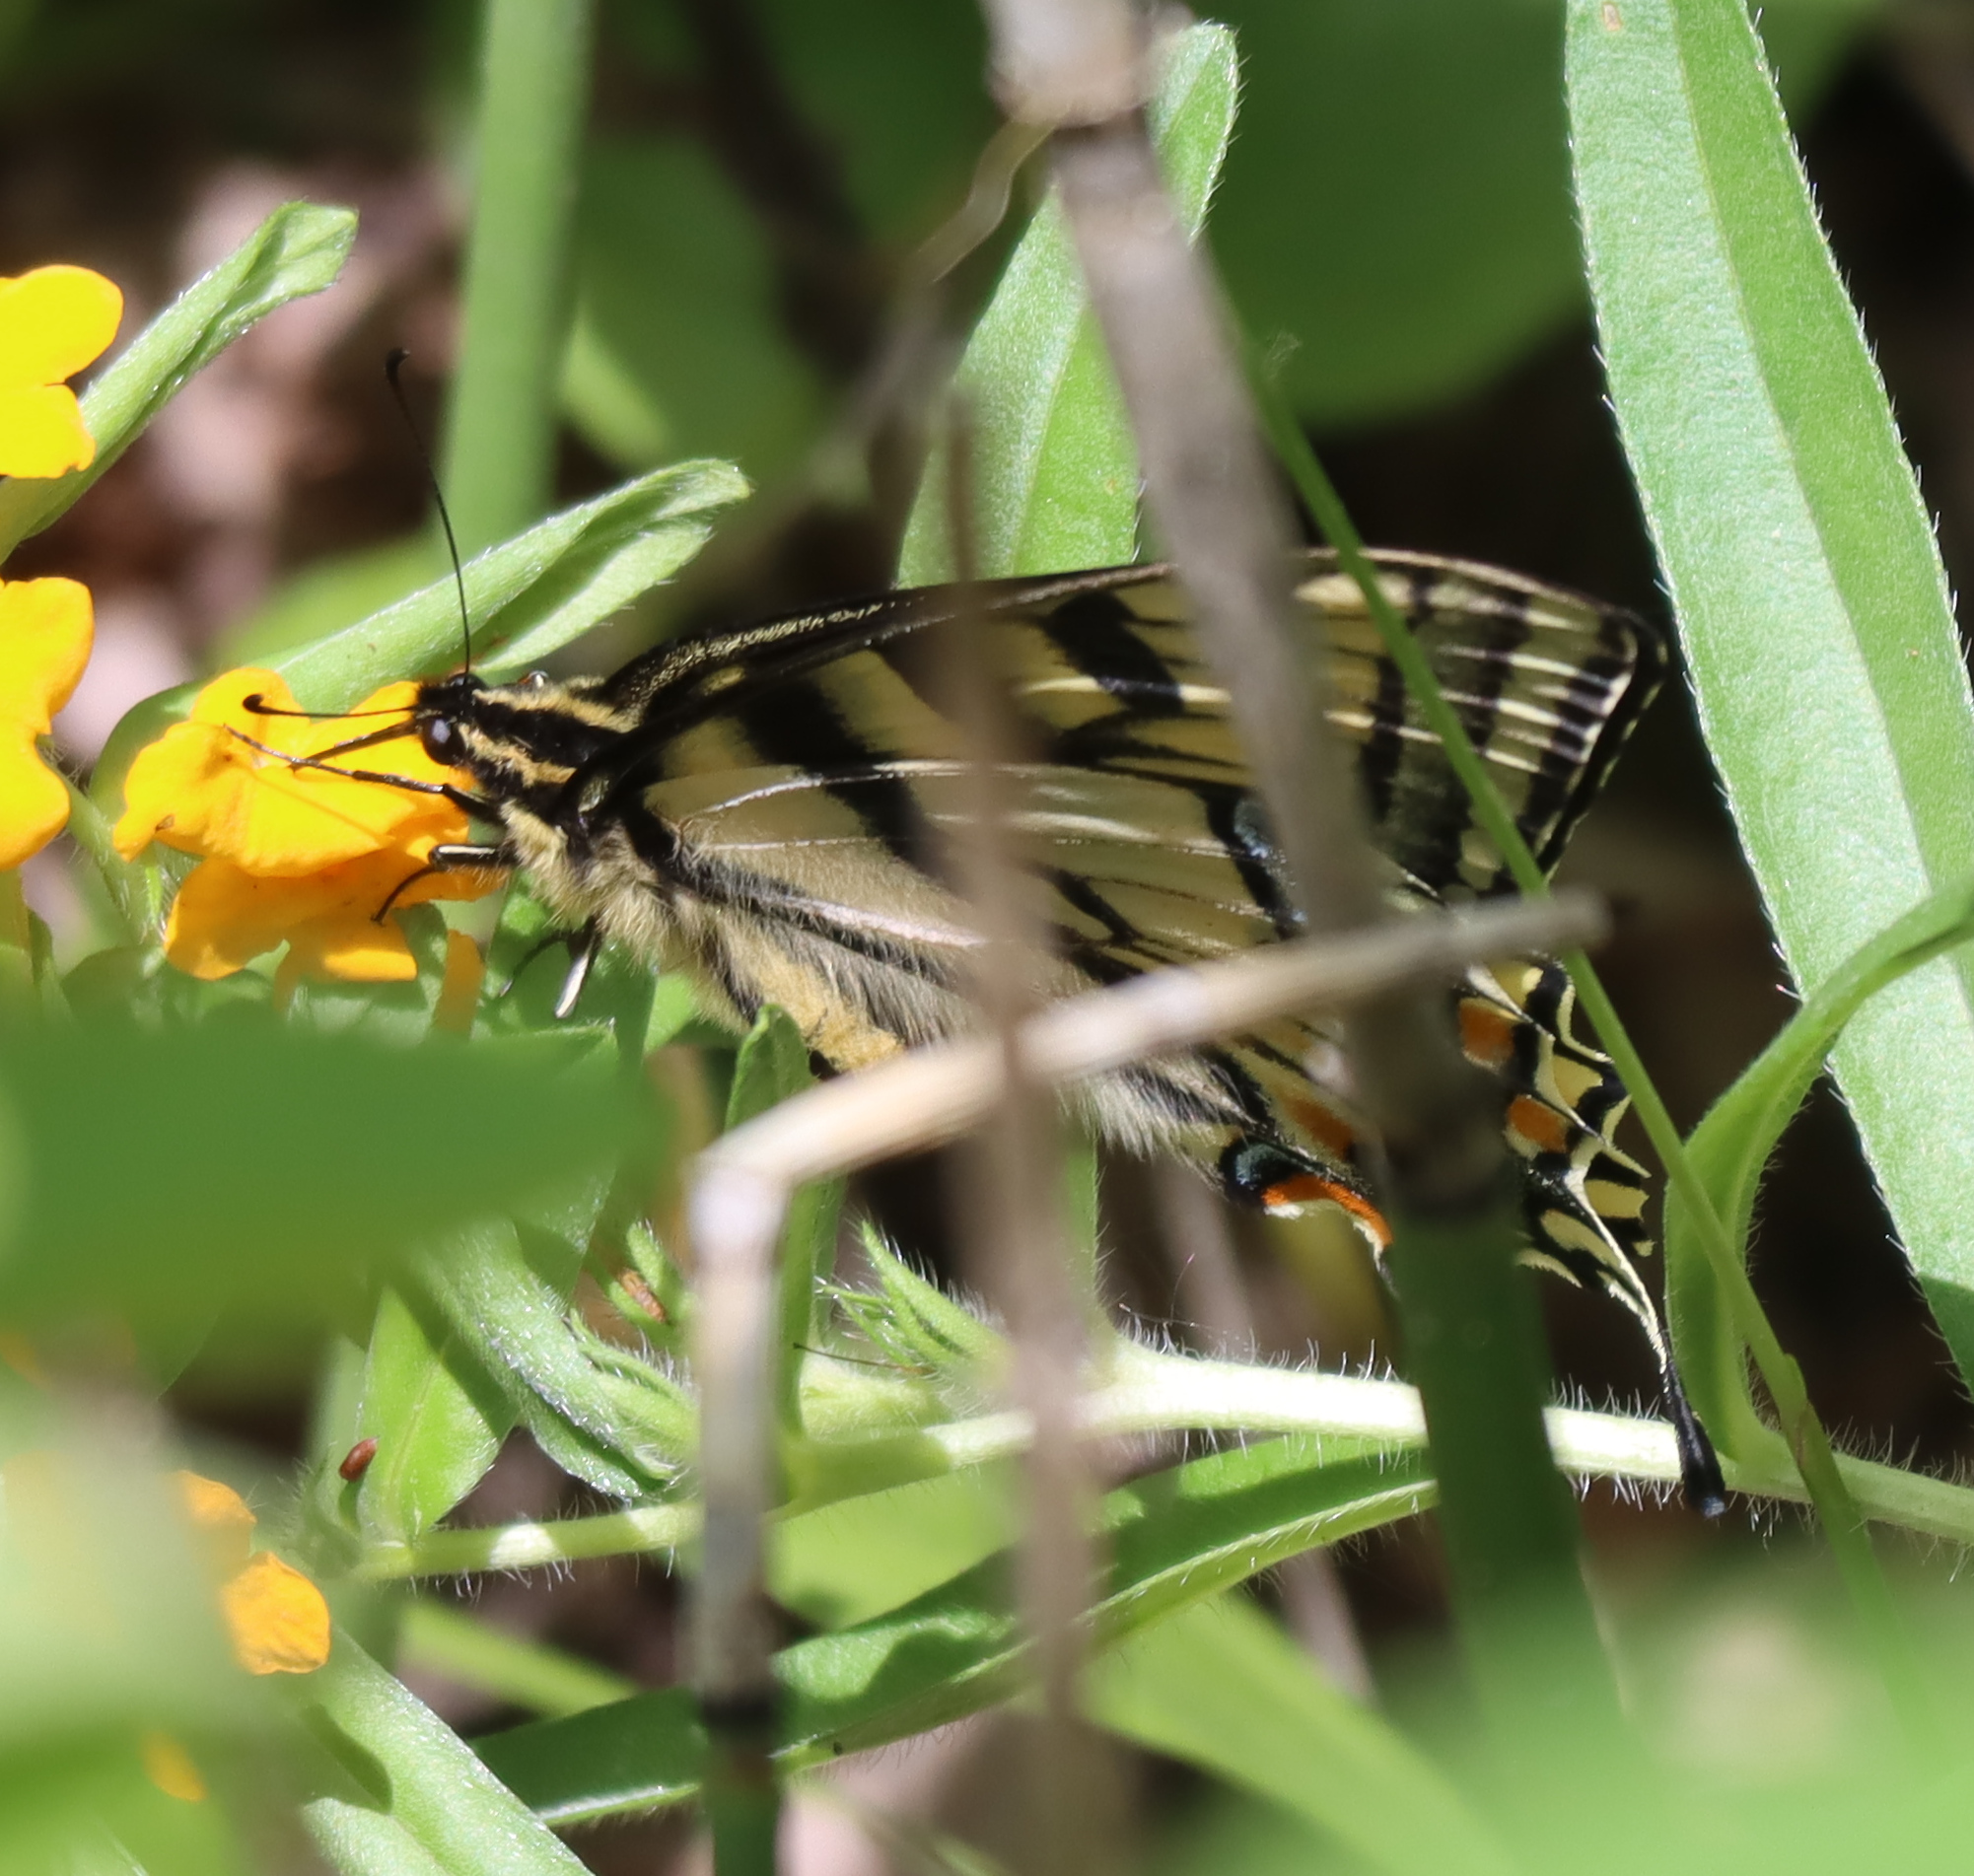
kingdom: Animalia
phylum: Arthropoda
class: Insecta
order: Lepidoptera
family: Papilionidae
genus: Papilio
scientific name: Papilio canadensis
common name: Canadian tiger swallowtail
